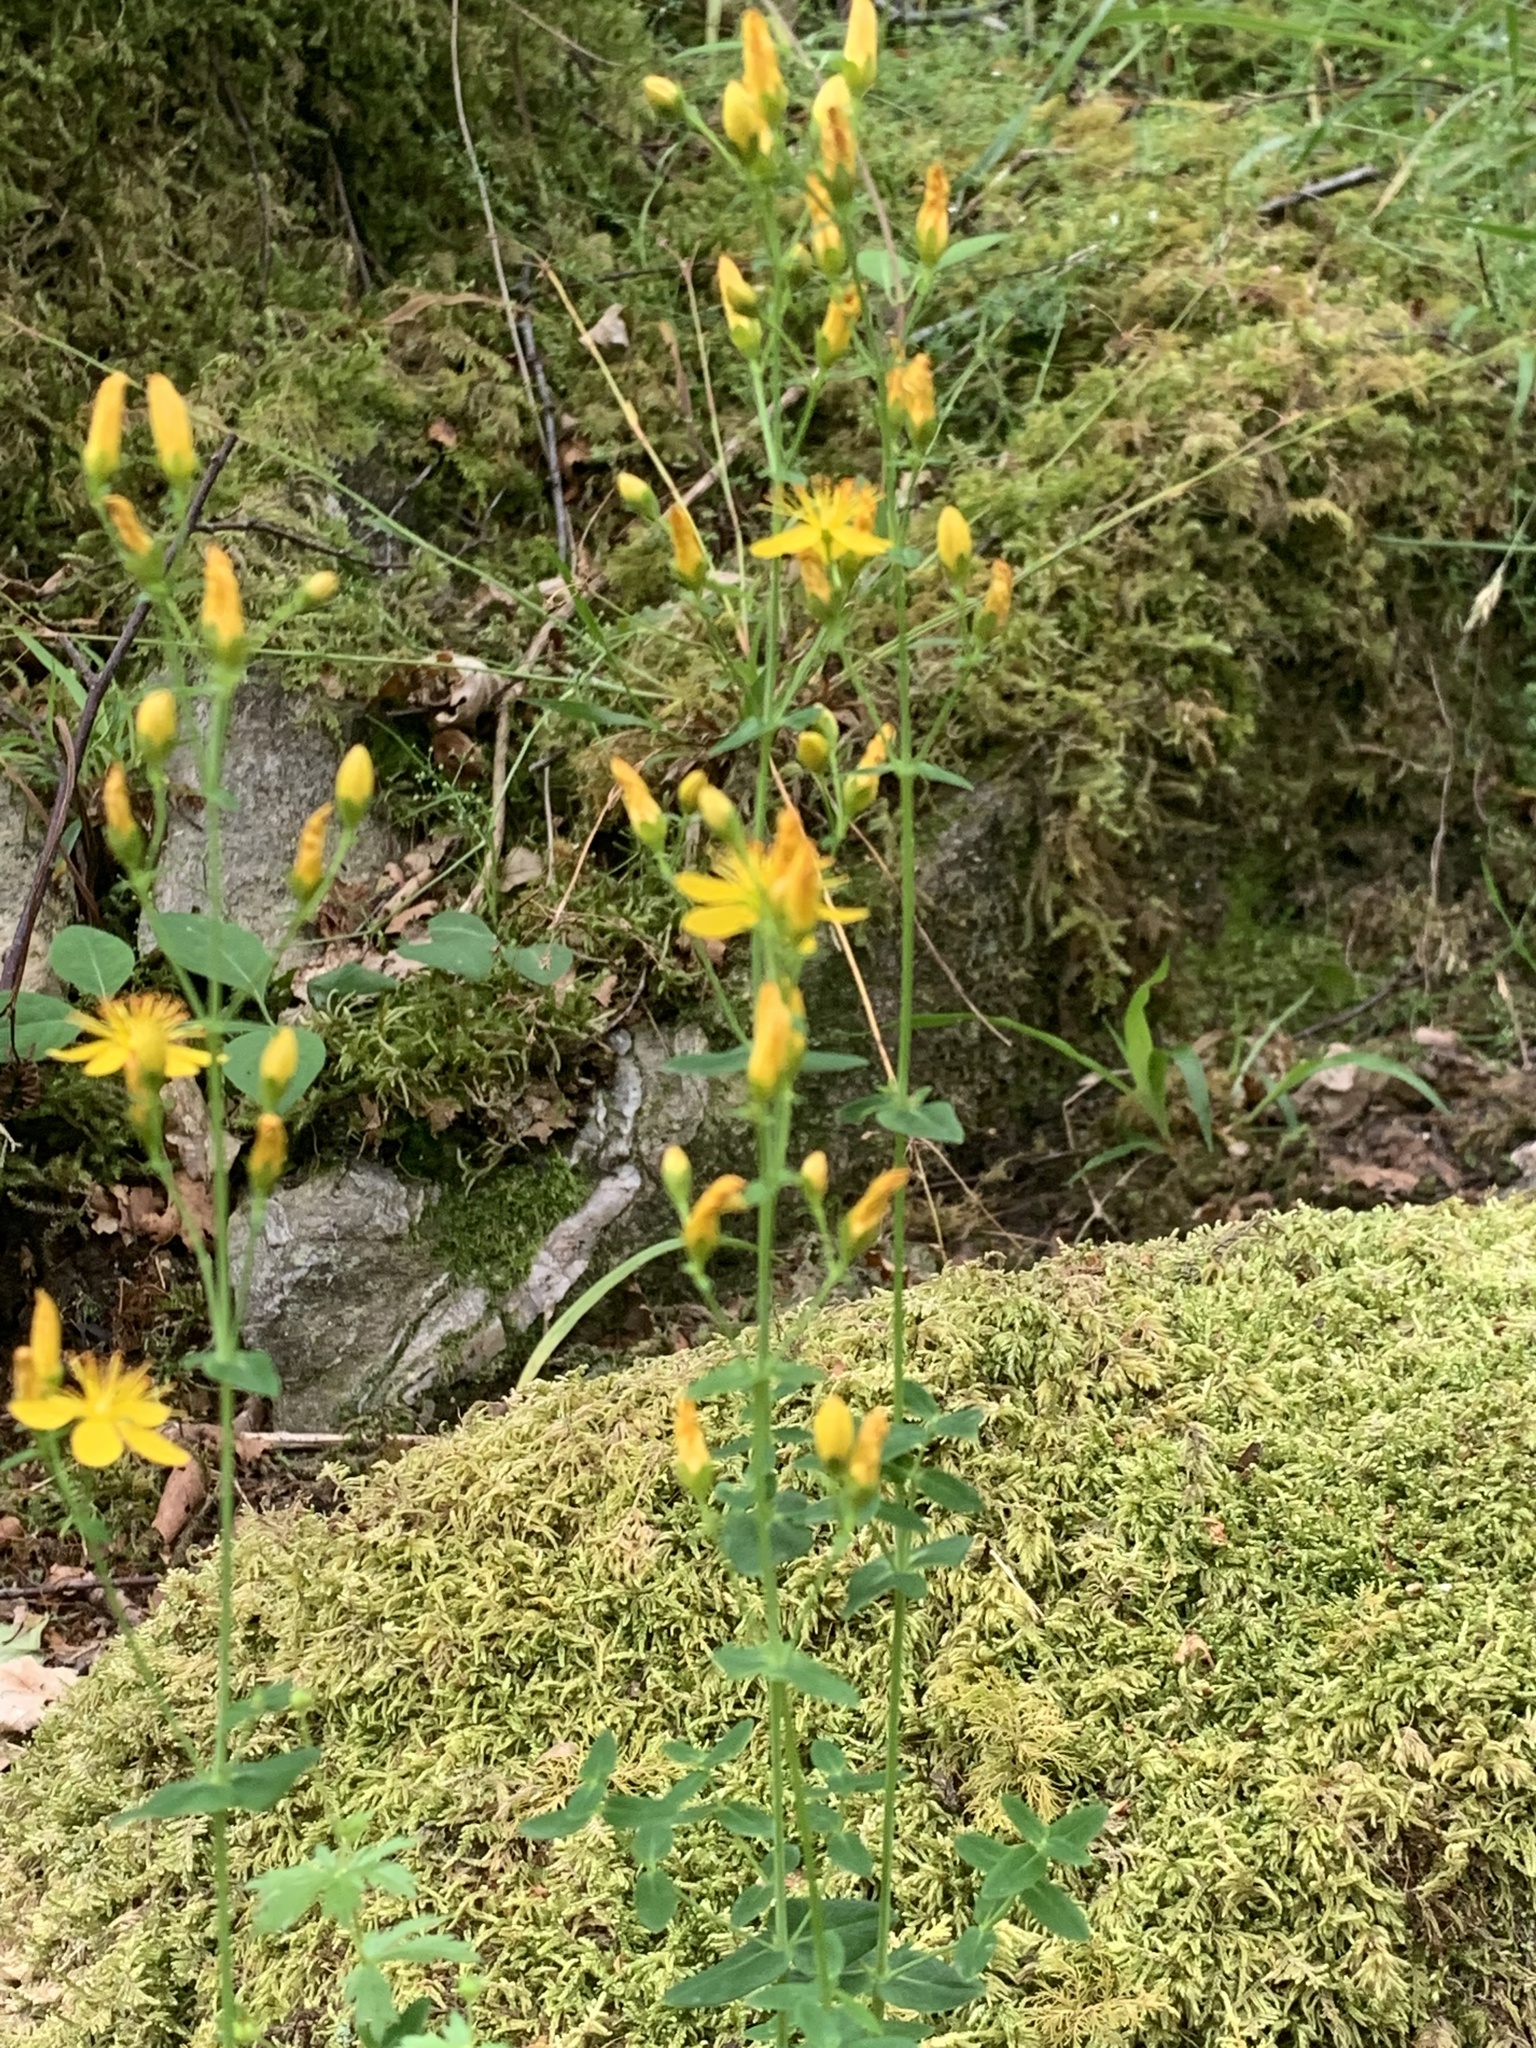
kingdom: Plantae
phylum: Tracheophyta
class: Magnoliopsida
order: Malpighiales
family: Hypericaceae
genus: Hypericum
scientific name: Hypericum pulchrum
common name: Slender st. john's-wort
